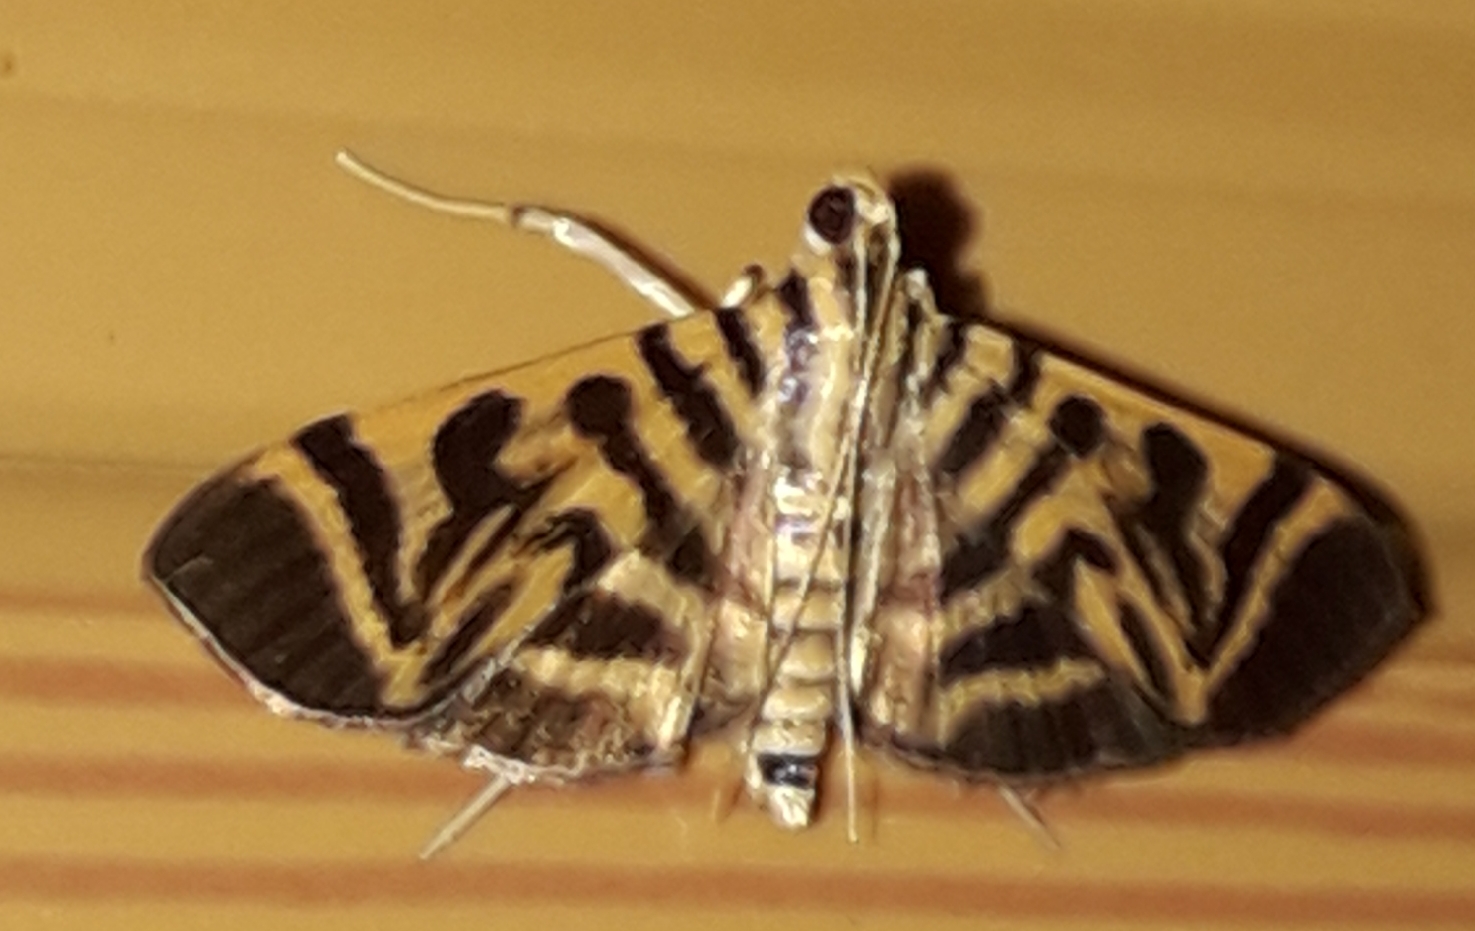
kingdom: Animalia
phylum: Arthropoda
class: Insecta
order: Lepidoptera
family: Crambidae
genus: Zebronia
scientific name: Zebronia
